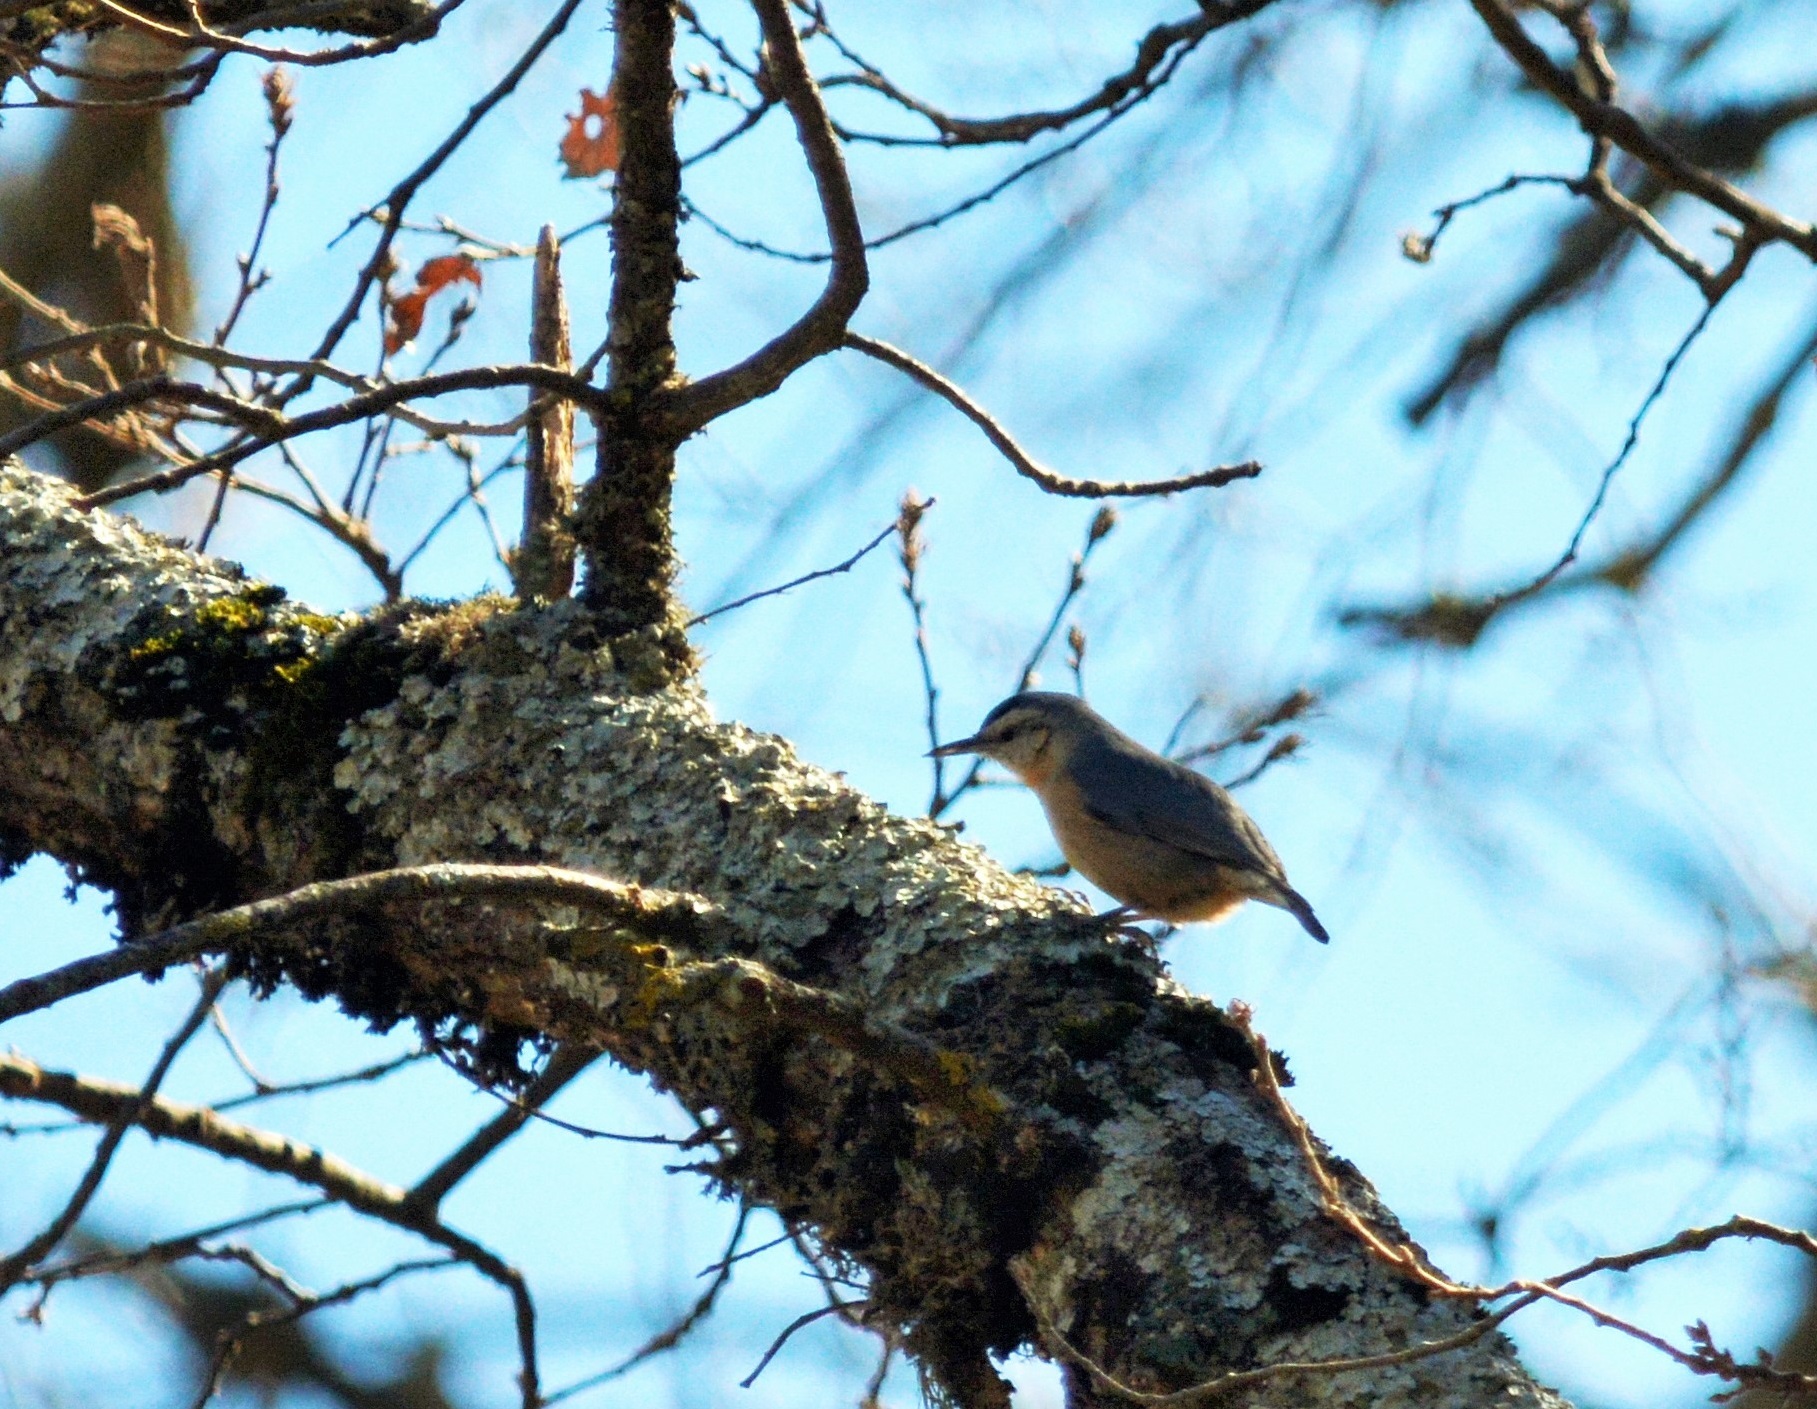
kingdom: Animalia
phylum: Chordata
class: Aves
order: Passeriformes
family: Sittidae
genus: Sitta
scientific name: Sitta ledanti
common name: Algerian nuthatch
